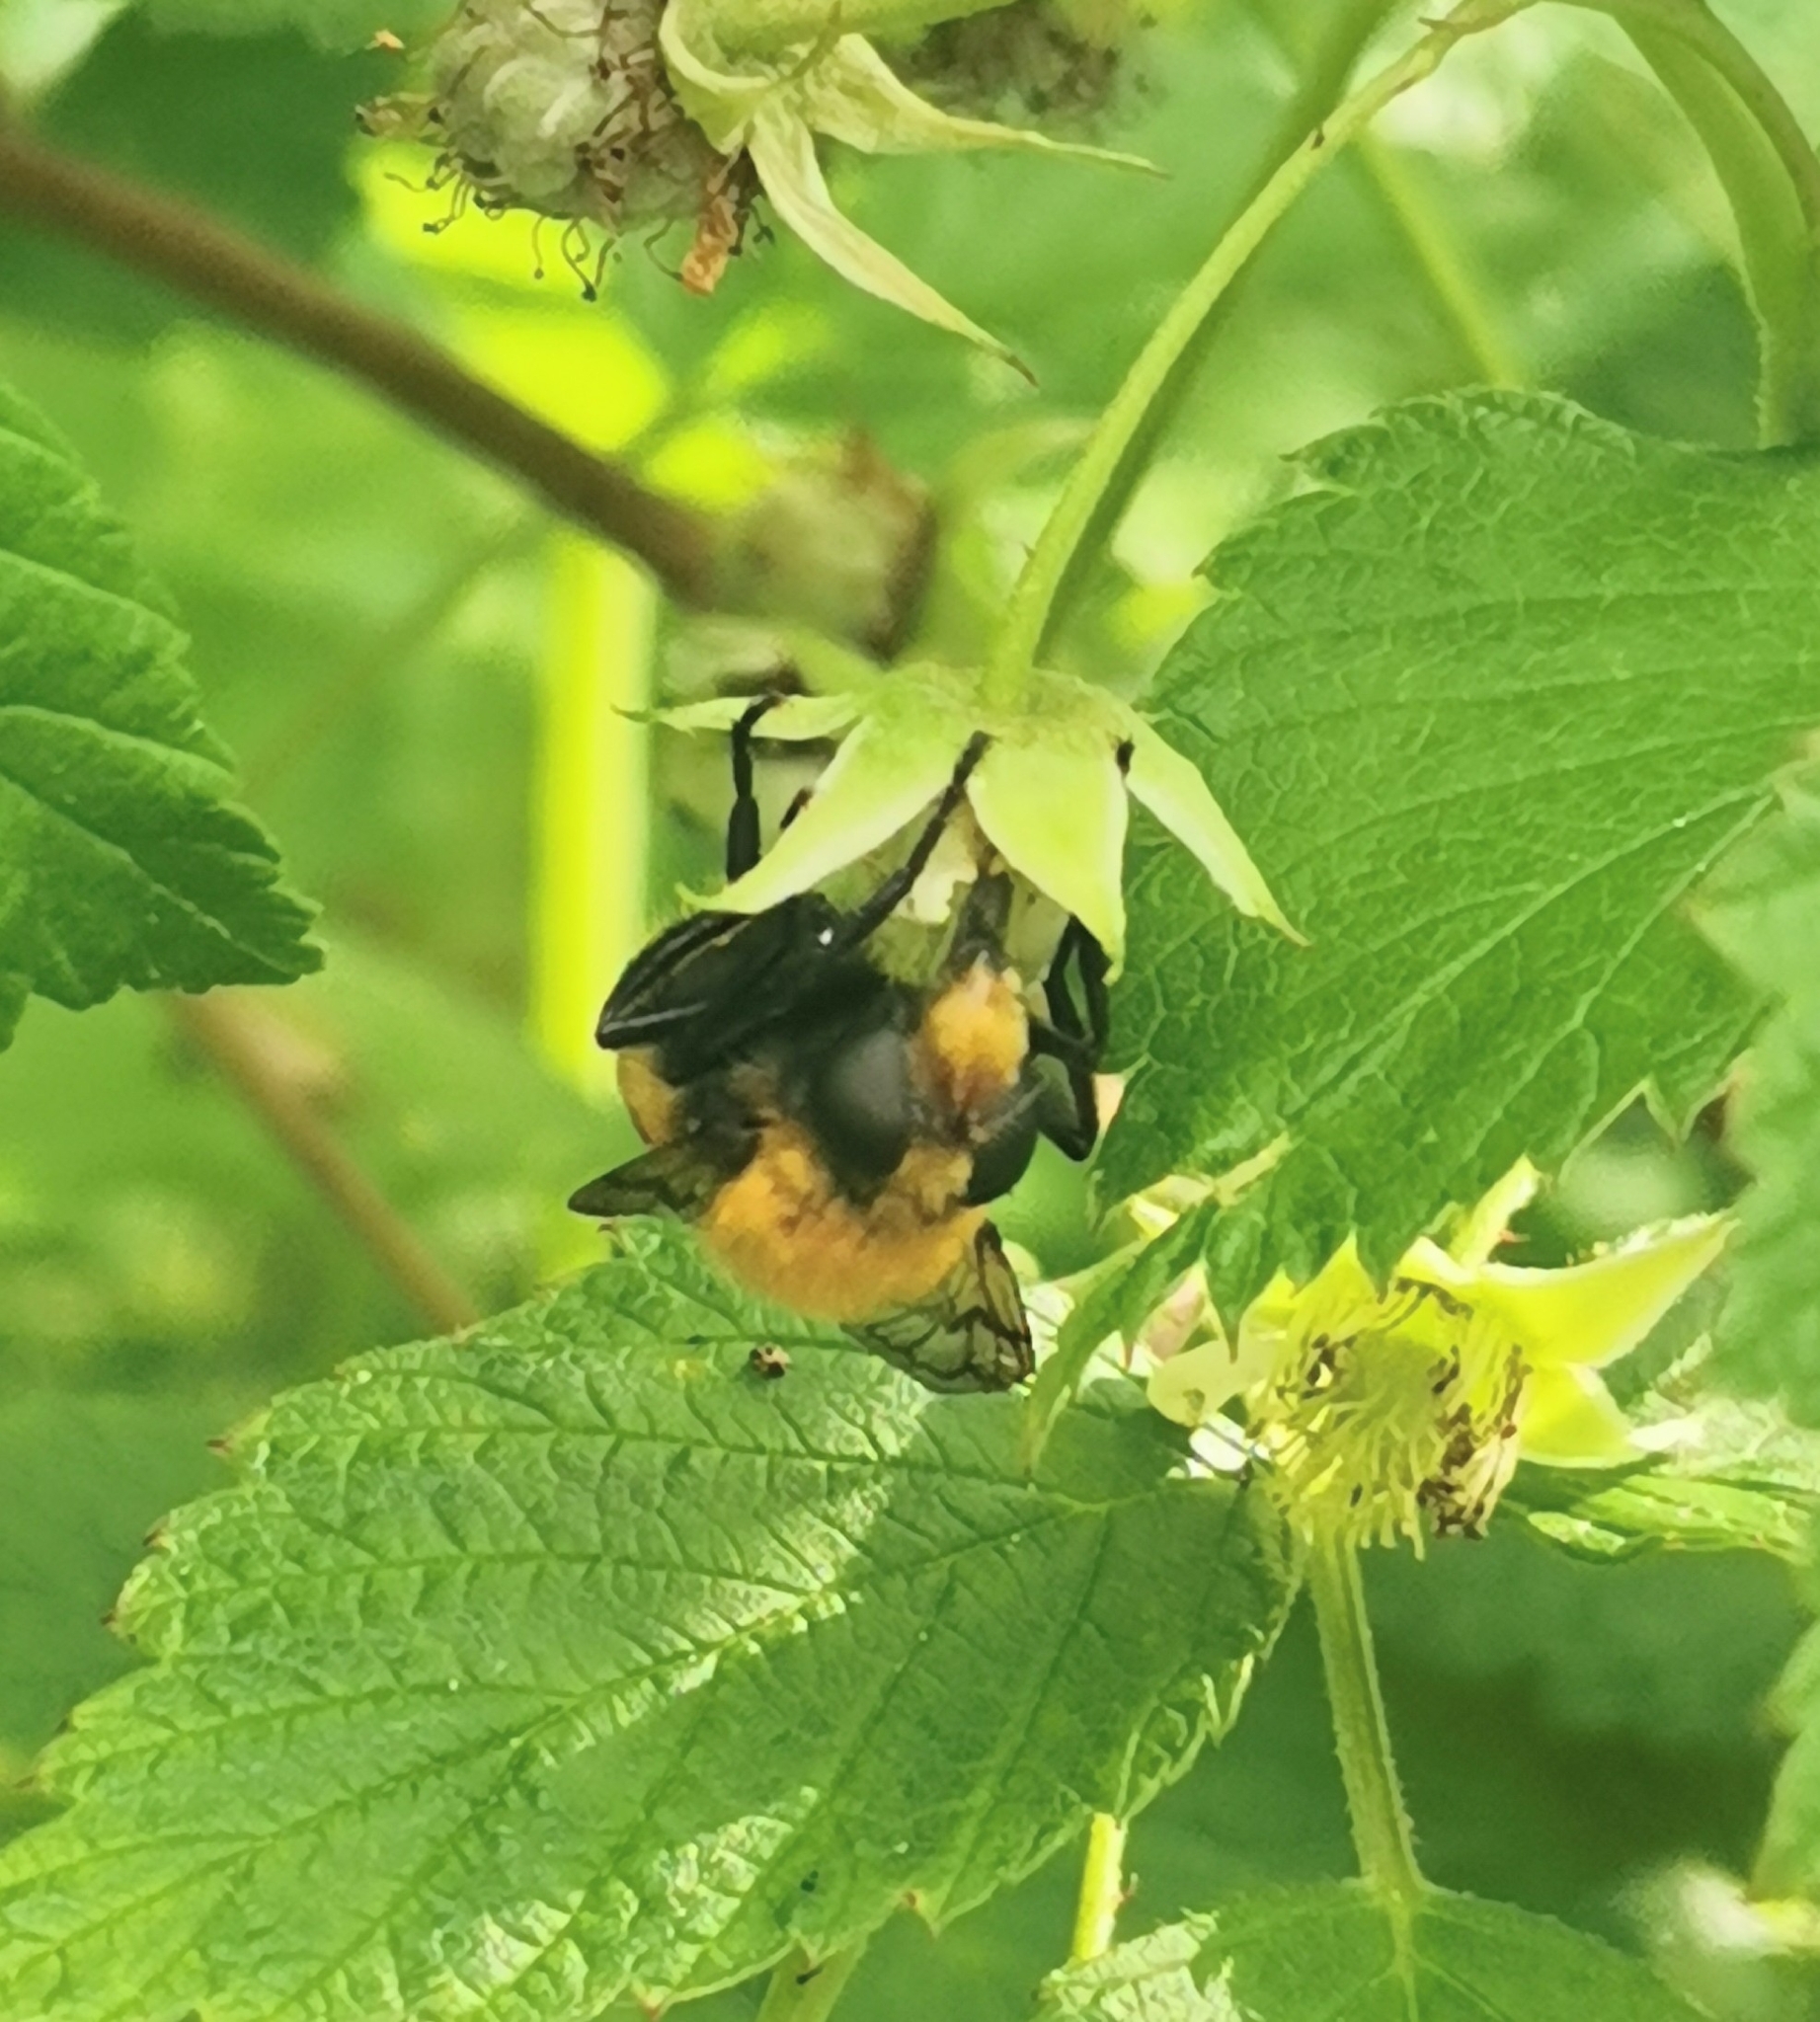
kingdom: Animalia
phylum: Arthropoda
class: Insecta
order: Diptera
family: Syrphidae
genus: Volucella
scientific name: Volucella bombylans
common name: Bumble bee hover fly
